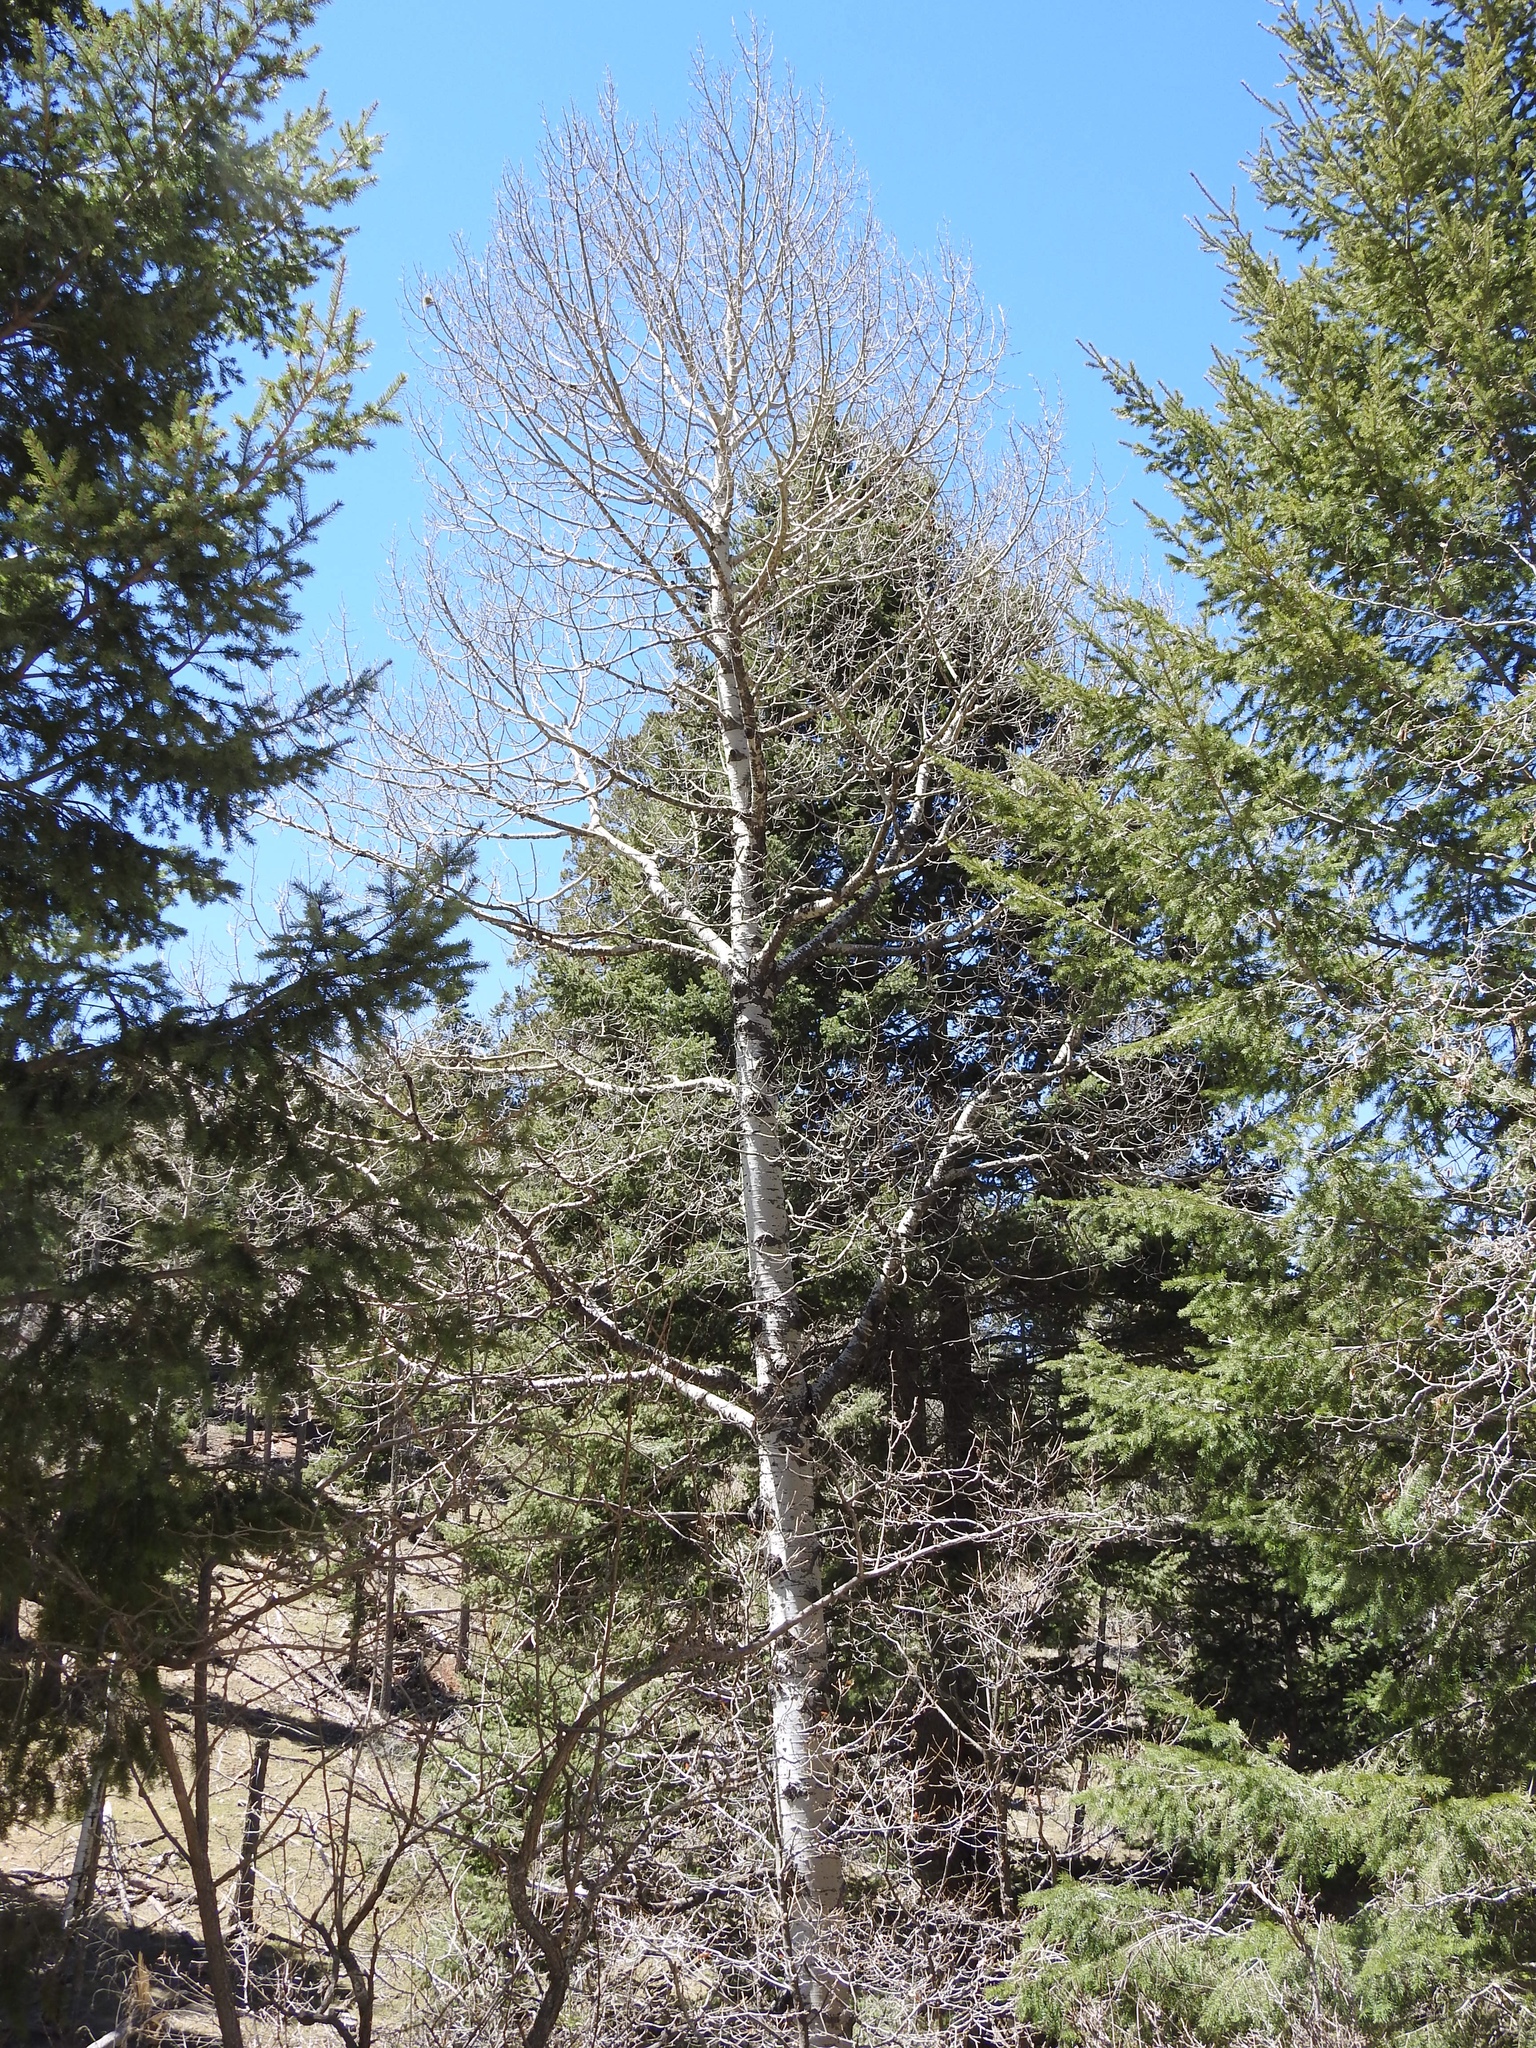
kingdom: Plantae
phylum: Tracheophyta
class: Magnoliopsida
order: Malpighiales
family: Salicaceae
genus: Populus
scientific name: Populus tremuloides
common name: Quaking aspen
